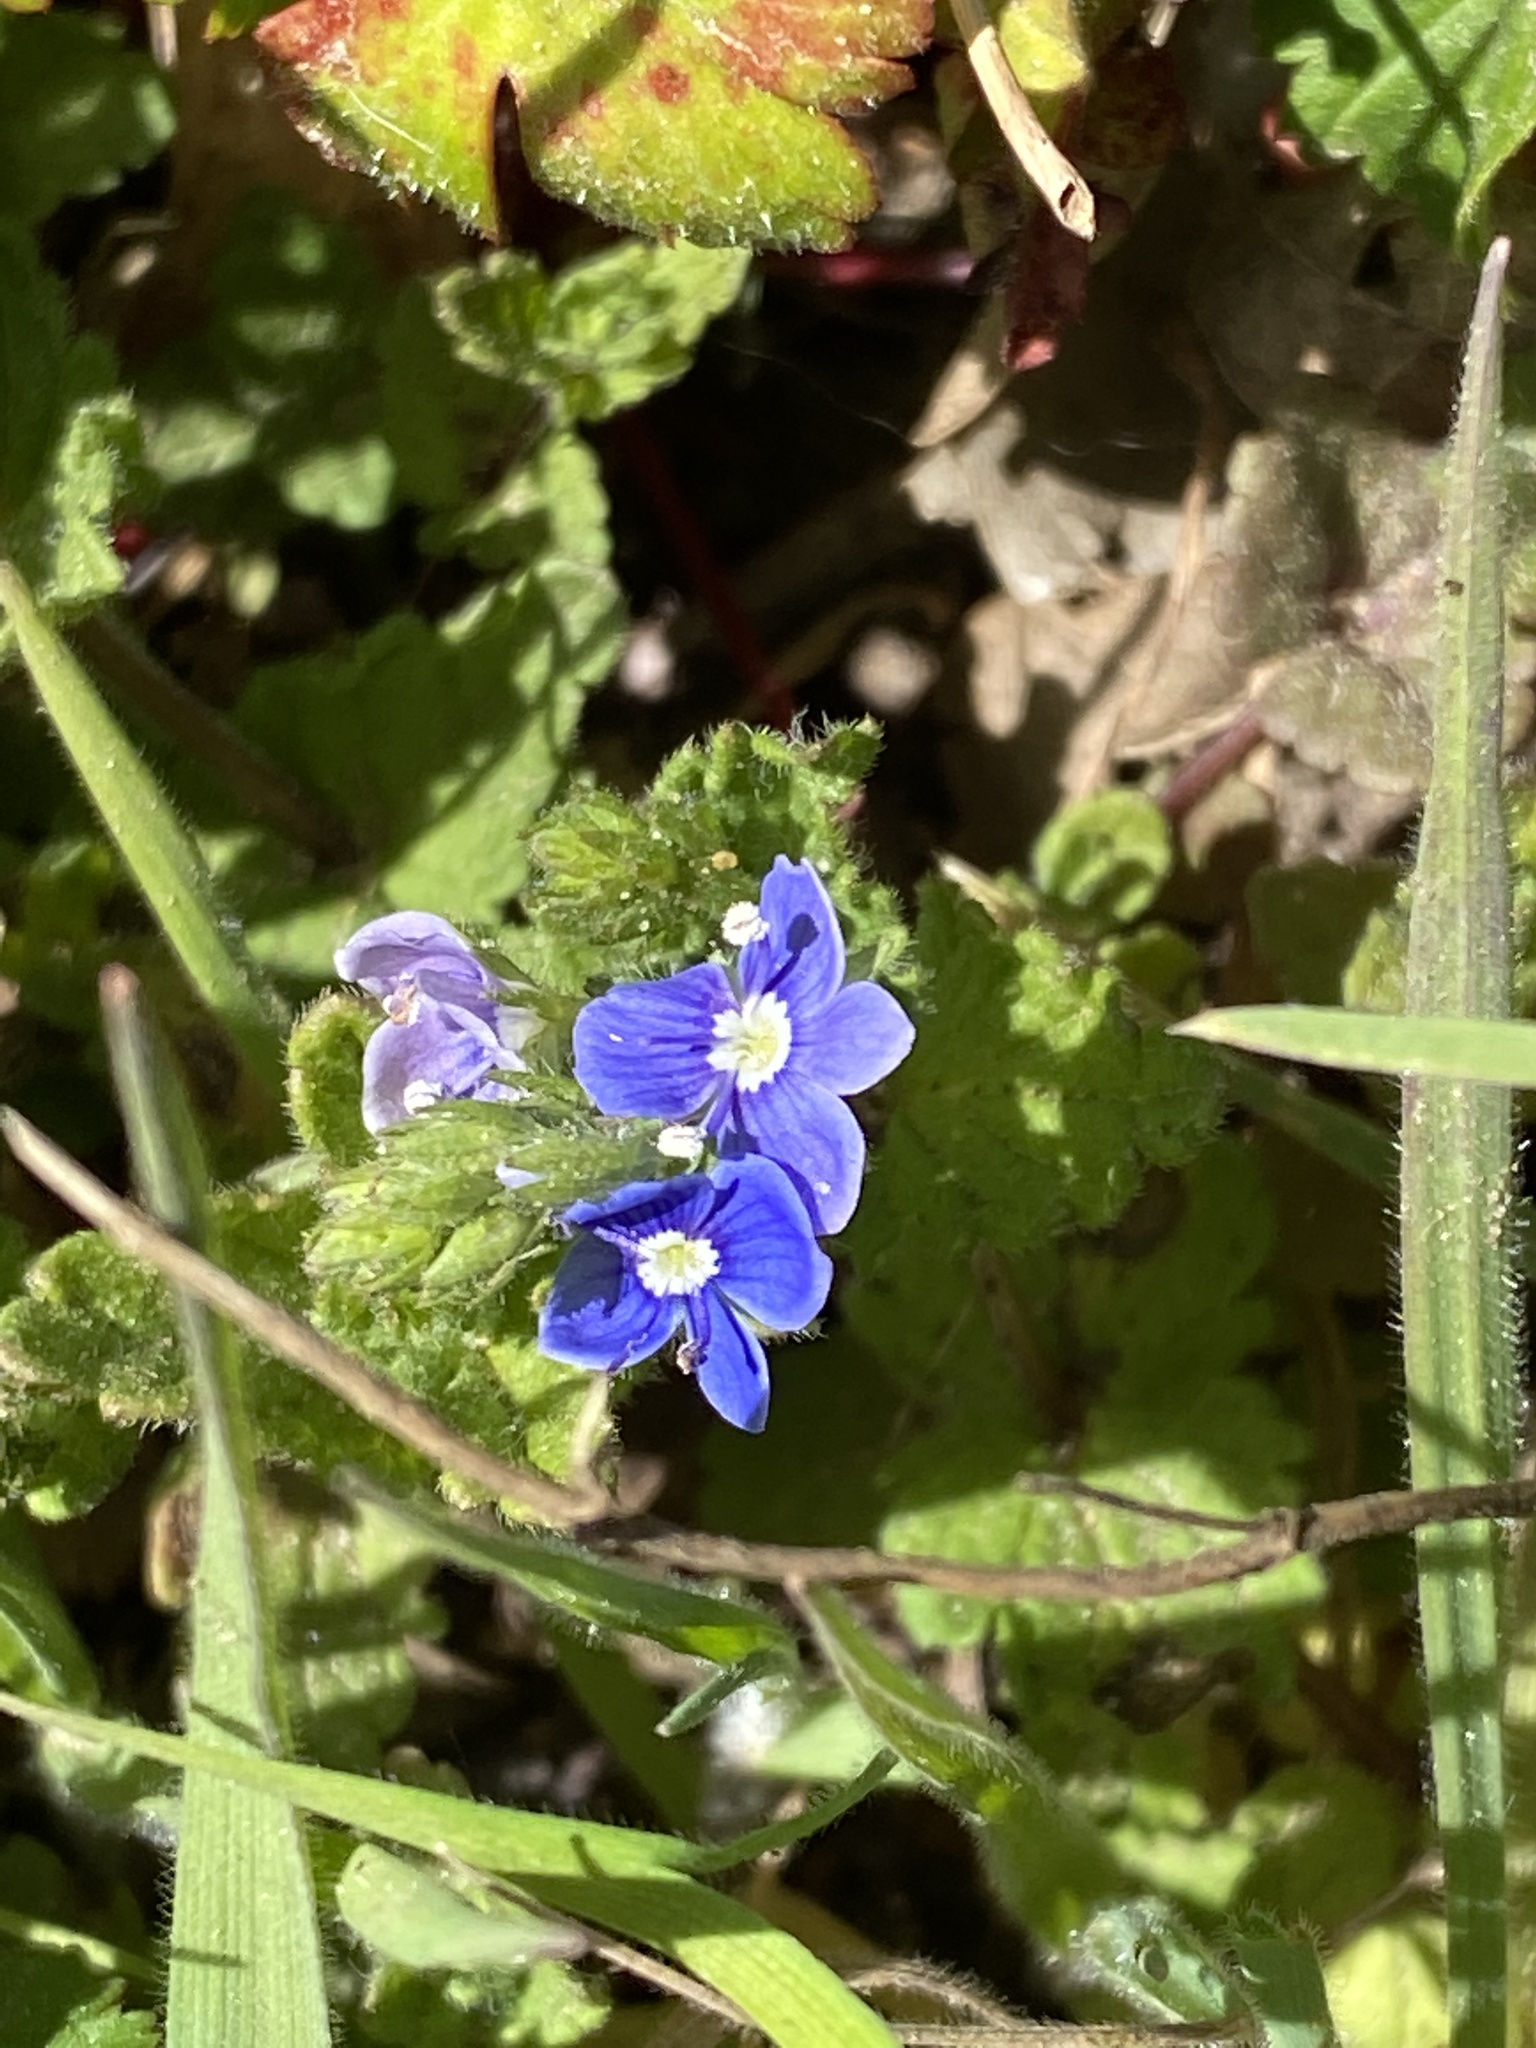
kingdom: Plantae
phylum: Tracheophyta
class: Magnoliopsida
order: Lamiales
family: Plantaginaceae
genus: Veronica
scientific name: Veronica chamaedrys
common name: Germander speedwell
